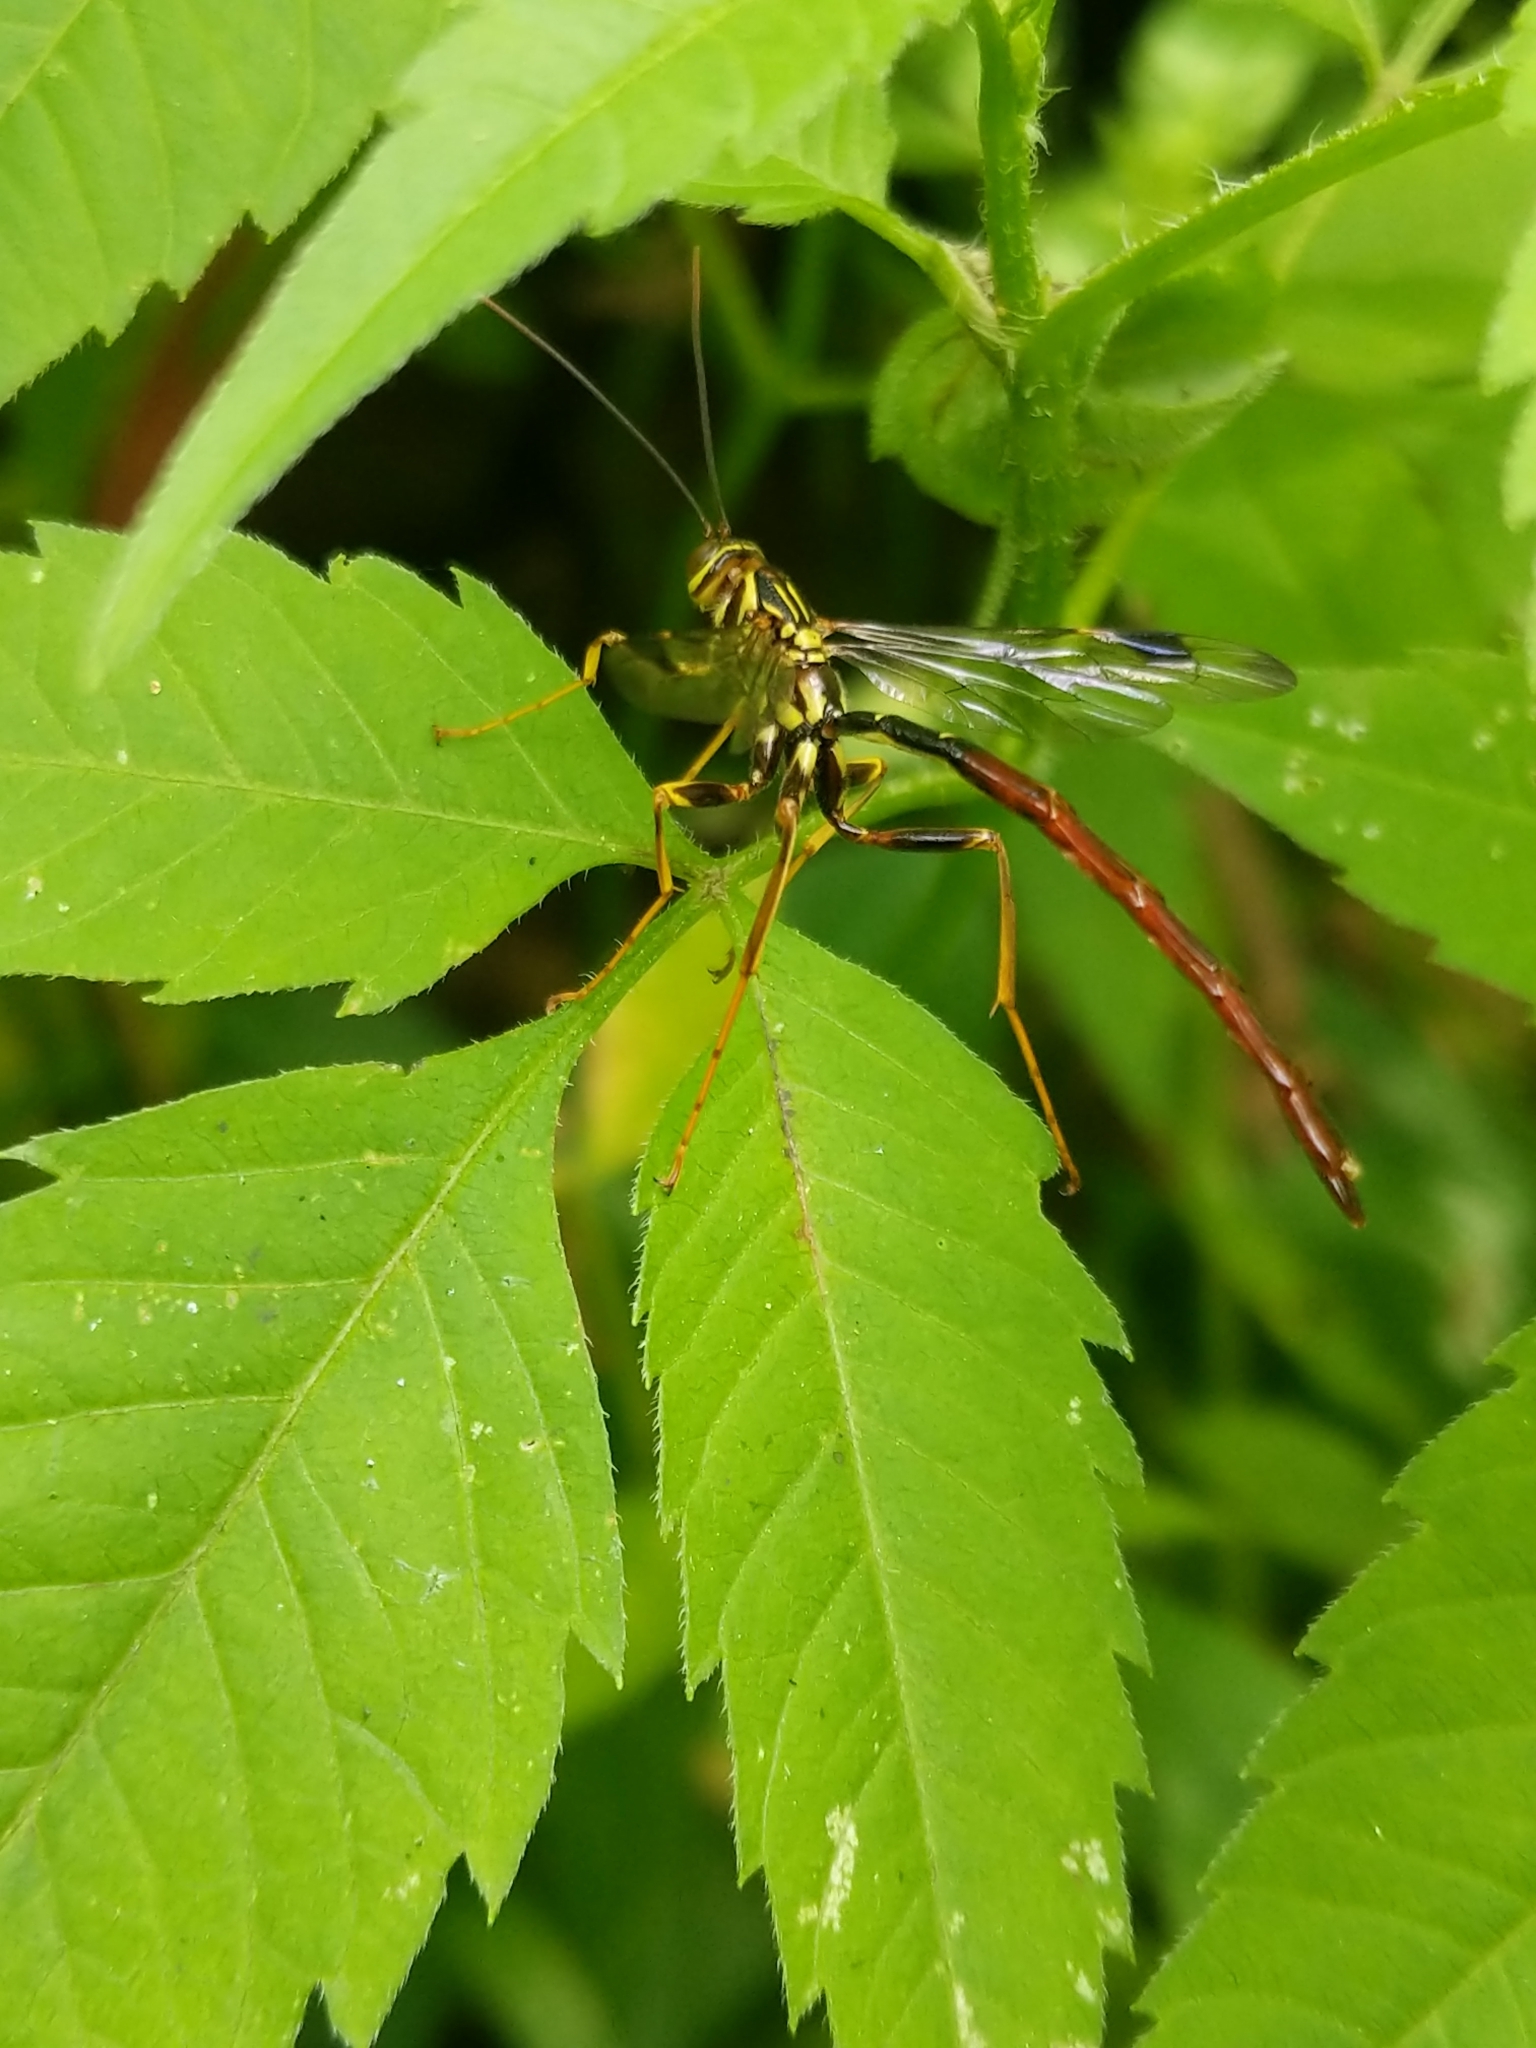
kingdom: Animalia
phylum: Arthropoda
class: Insecta
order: Hymenoptera
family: Ichneumonidae
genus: Megarhyssa
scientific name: Megarhyssa macrura
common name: Long-tailed giant ichneumonid wasp
